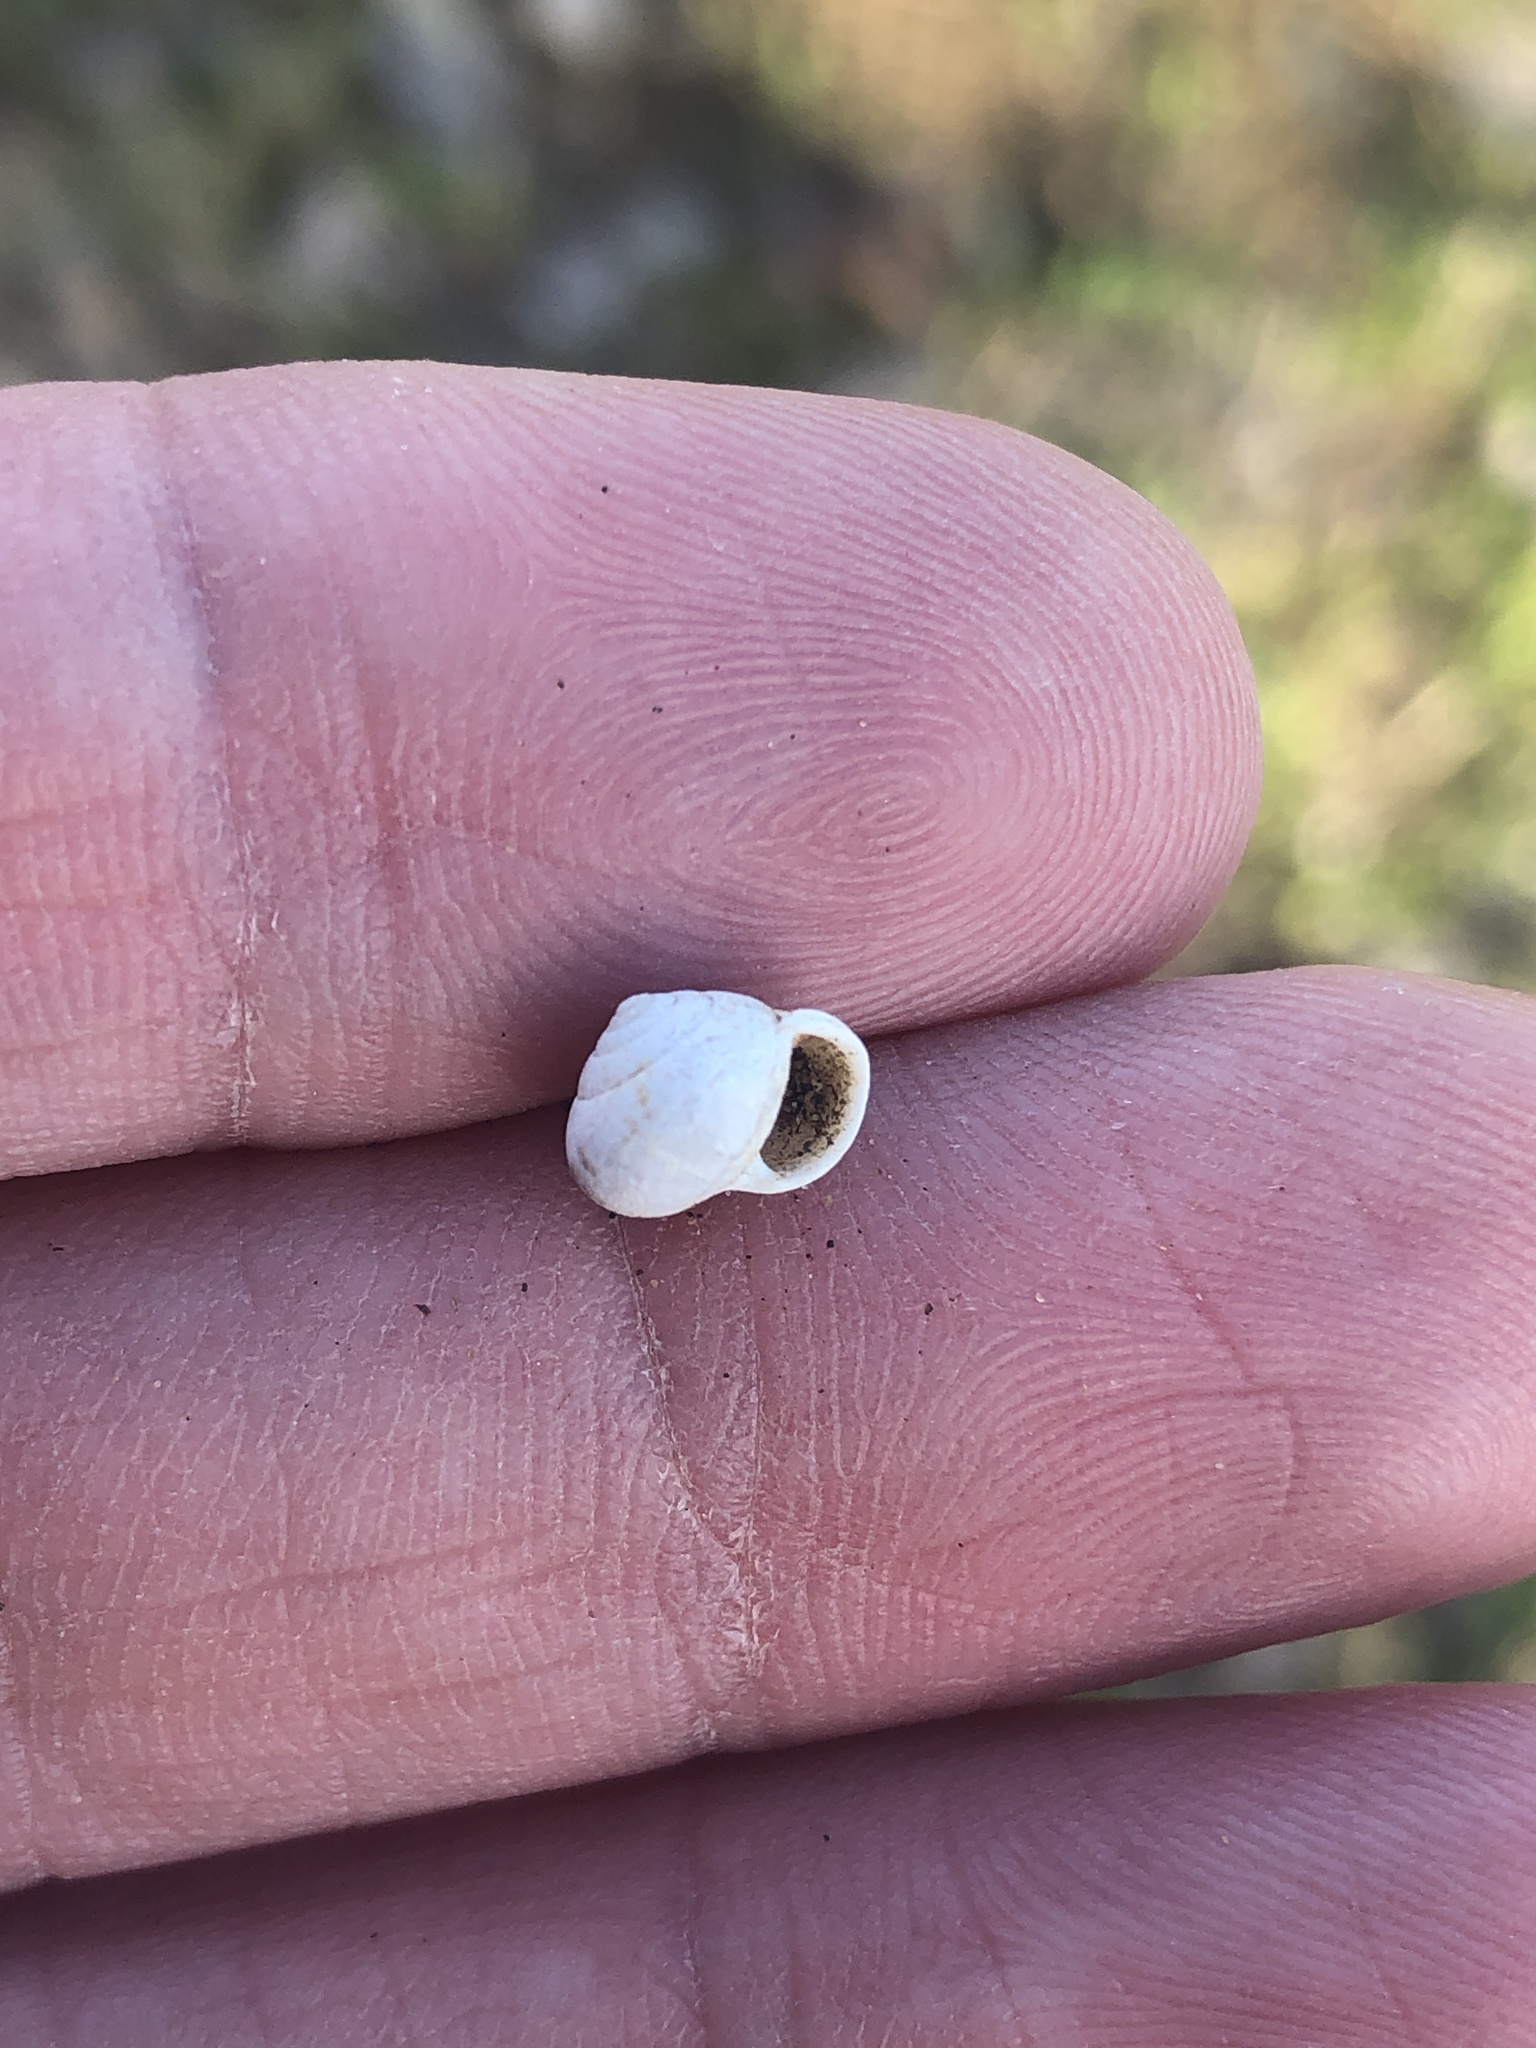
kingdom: Animalia
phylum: Mollusca
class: Gastropoda
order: Cycloneritida
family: Helicinidae
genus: Helicina
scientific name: Helicina orbiculata
